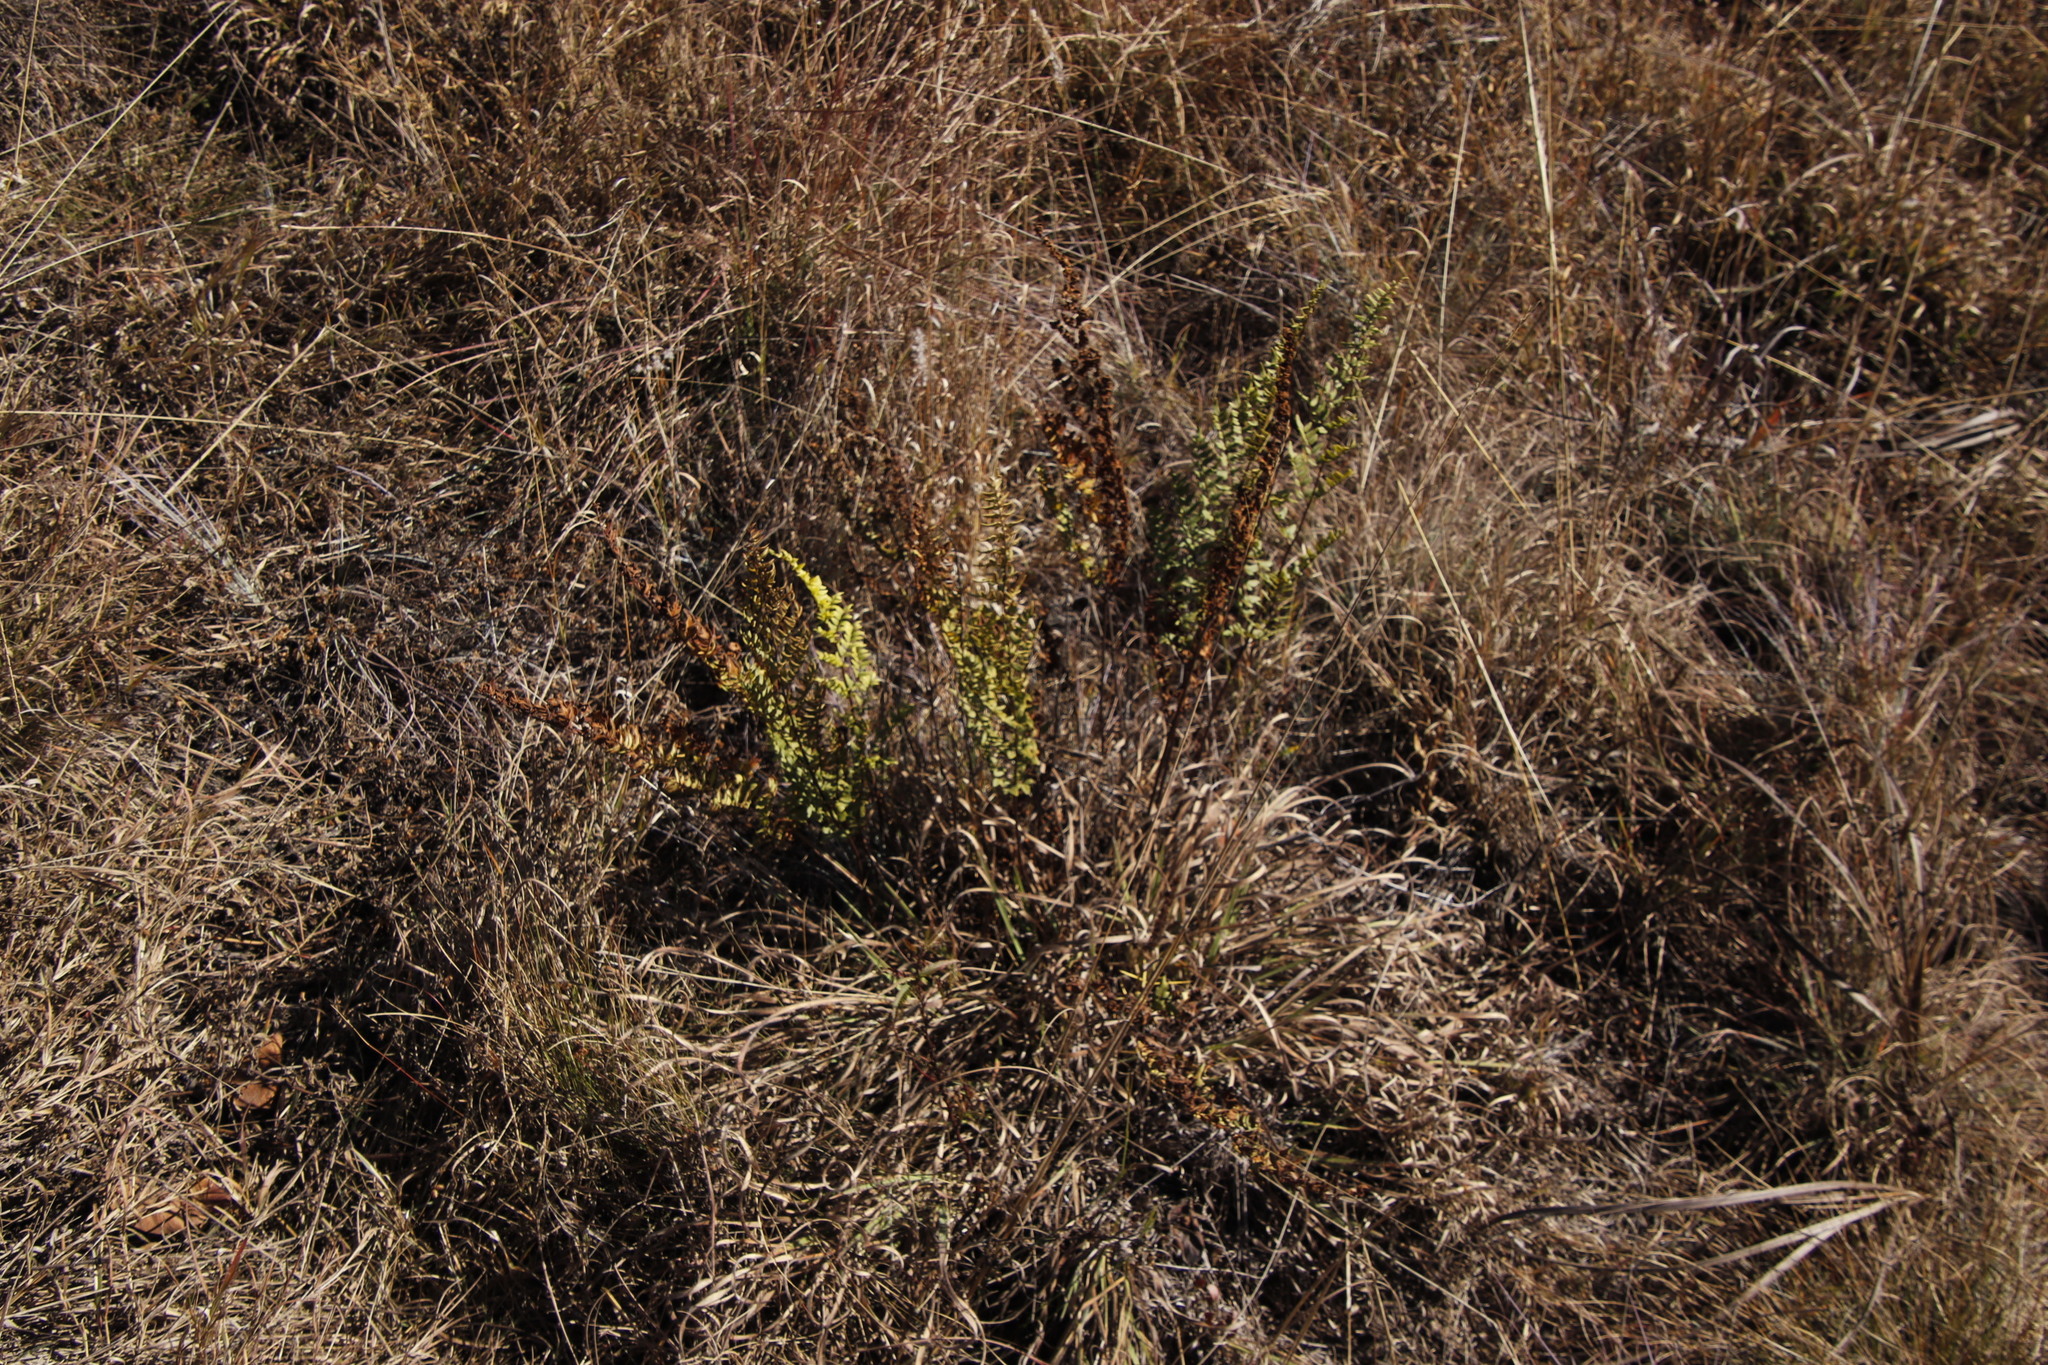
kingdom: Plantae
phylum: Tracheophyta
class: Magnoliopsida
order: Malpighiales
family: Chrysobalanaceae
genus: Parinari
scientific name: Parinari capensis
